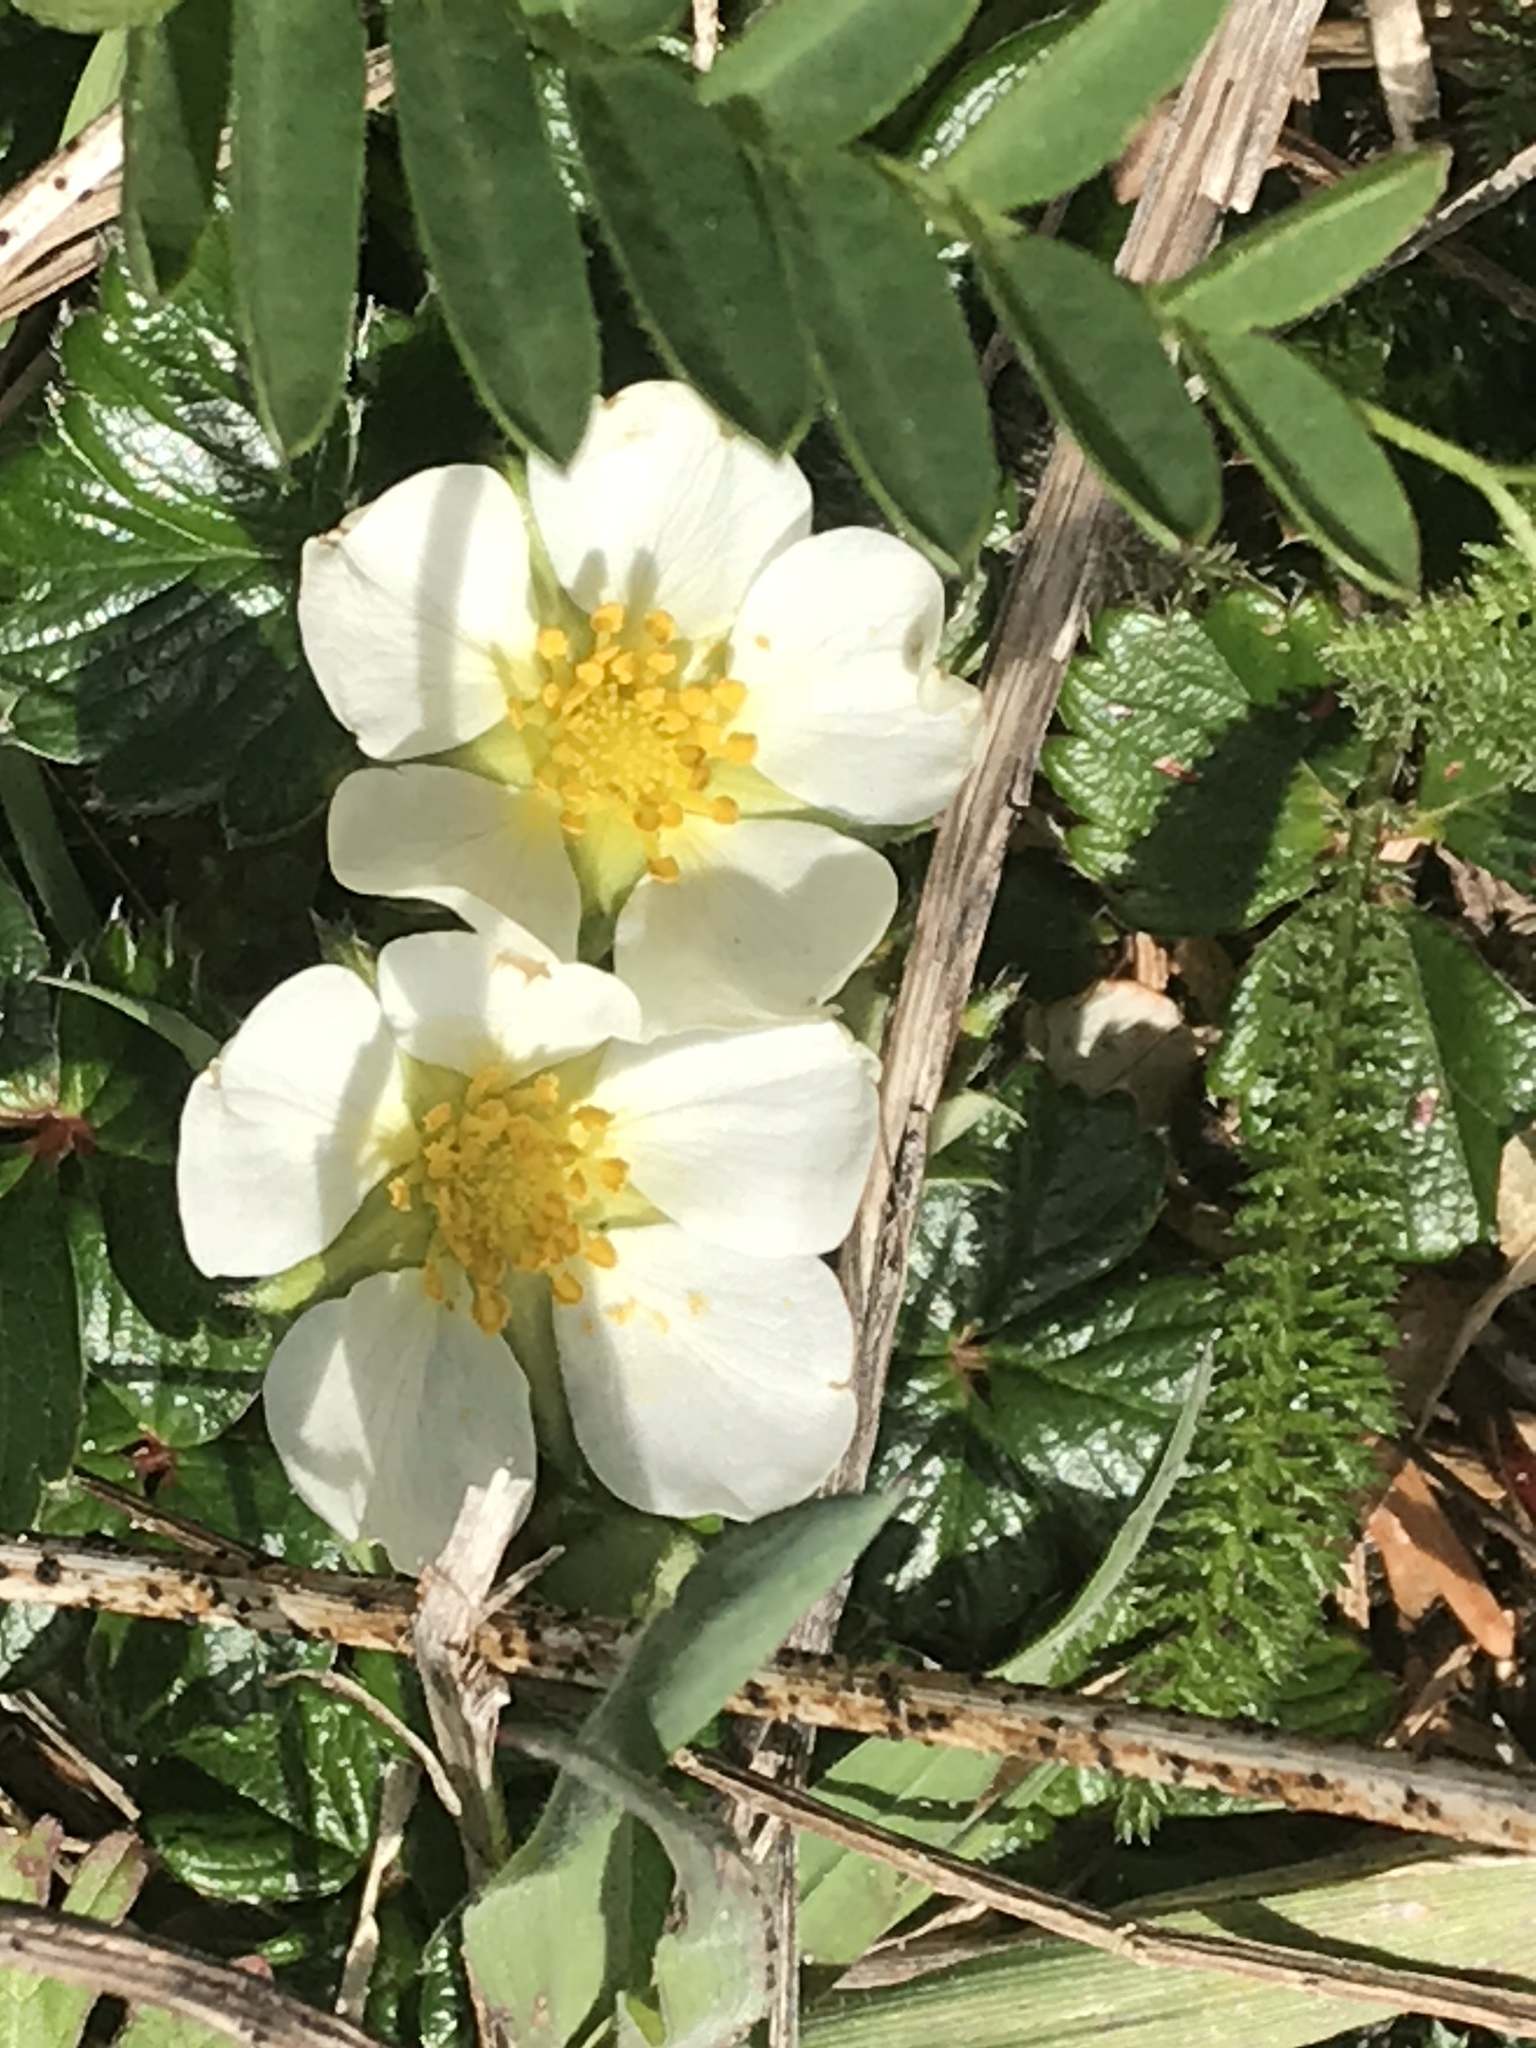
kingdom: Plantae
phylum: Tracheophyta
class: Magnoliopsida
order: Rosales
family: Rosaceae
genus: Fragaria
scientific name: Fragaria chiloensis
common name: Beach strawberry
